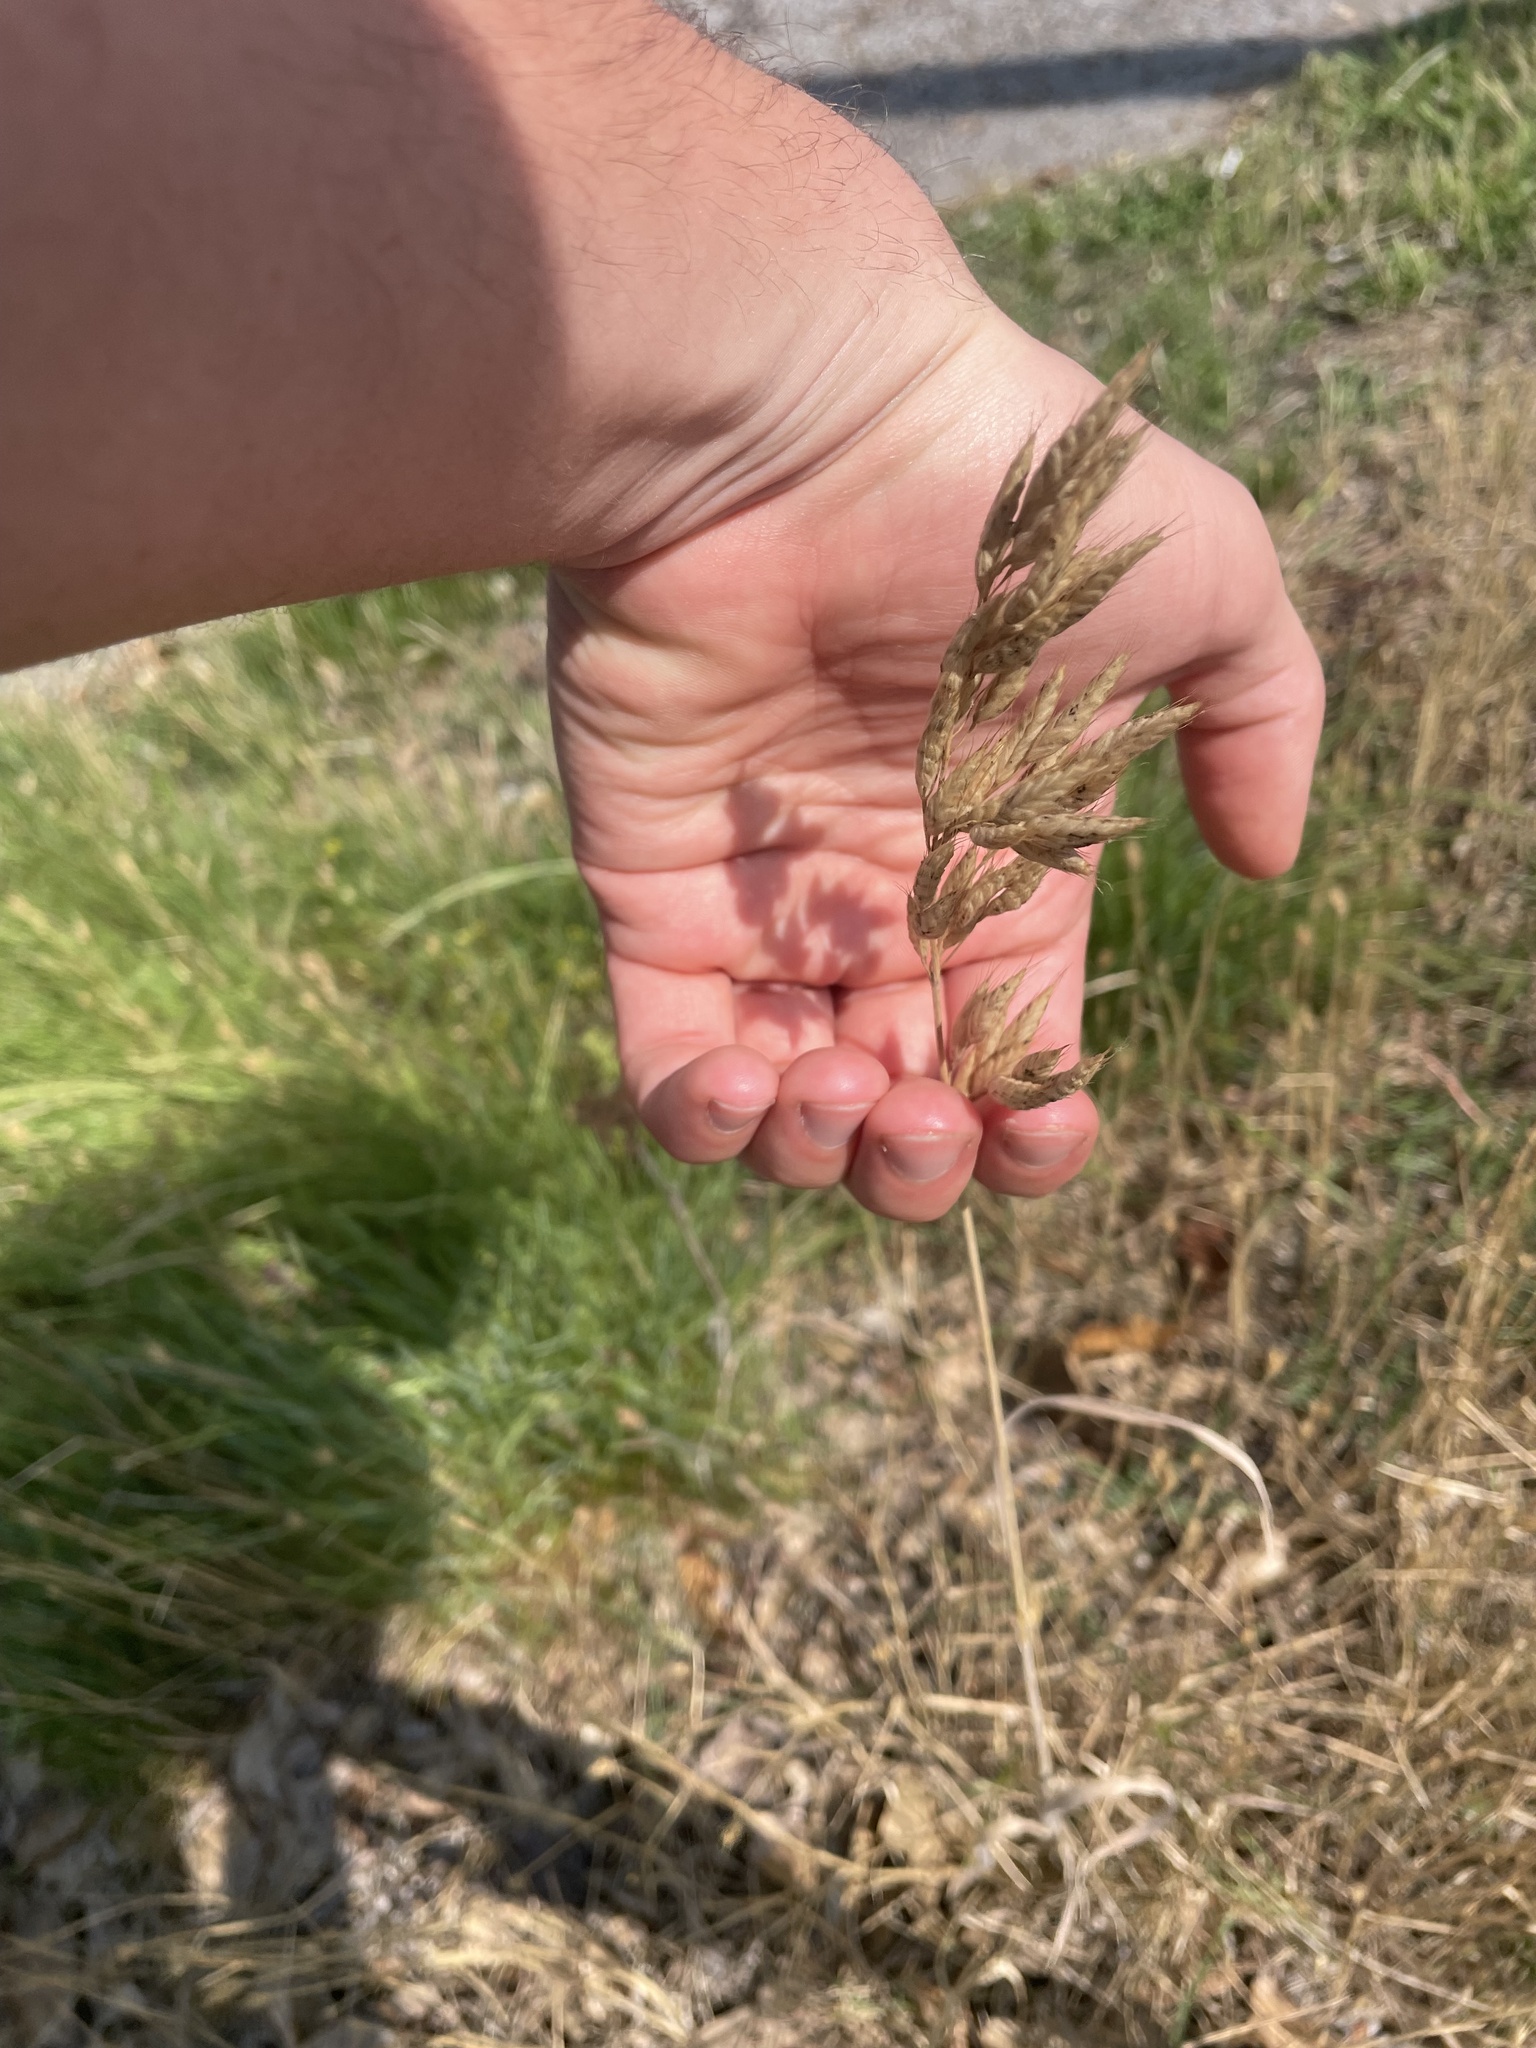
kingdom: Plantae
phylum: Tracheophyta
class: Liliopsida
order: Poales
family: Poaceae
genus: Dactylis
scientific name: Dactylis glomerata
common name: Orchardgrass
